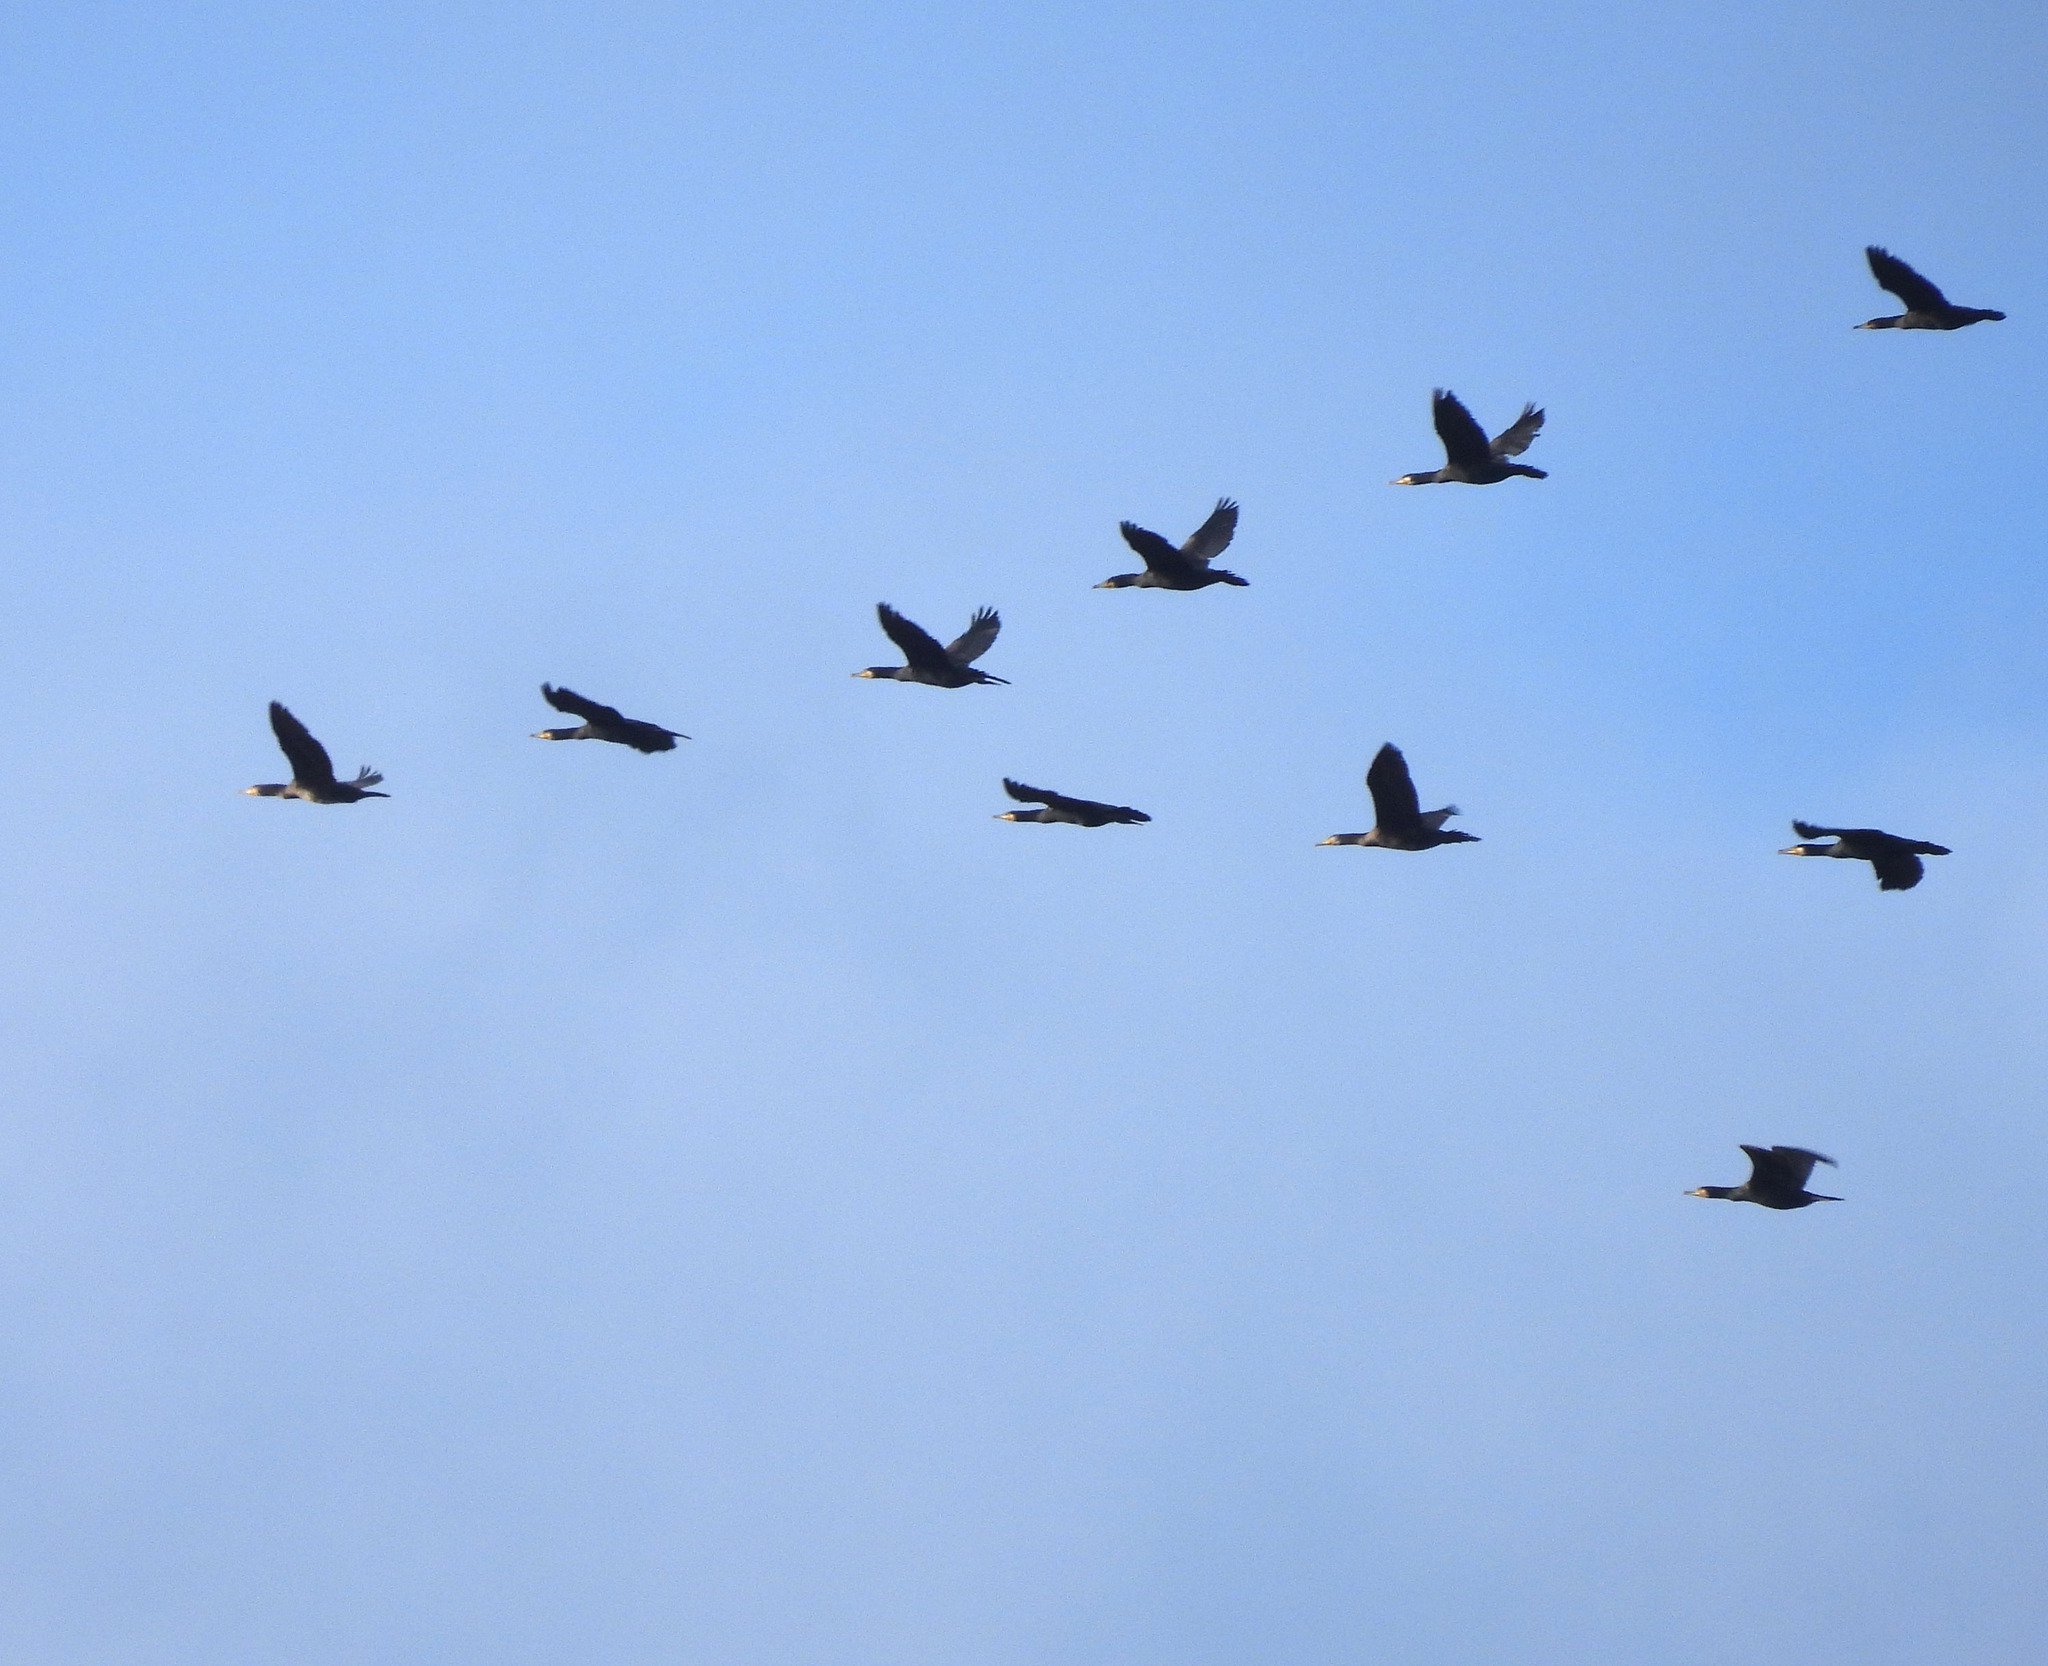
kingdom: Animalia
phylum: Chordata
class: Aves
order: Suliformes
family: Phalacrocoracidae
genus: Phalacrocorax
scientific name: Phalacrocorax carbo
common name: Great cormorant
